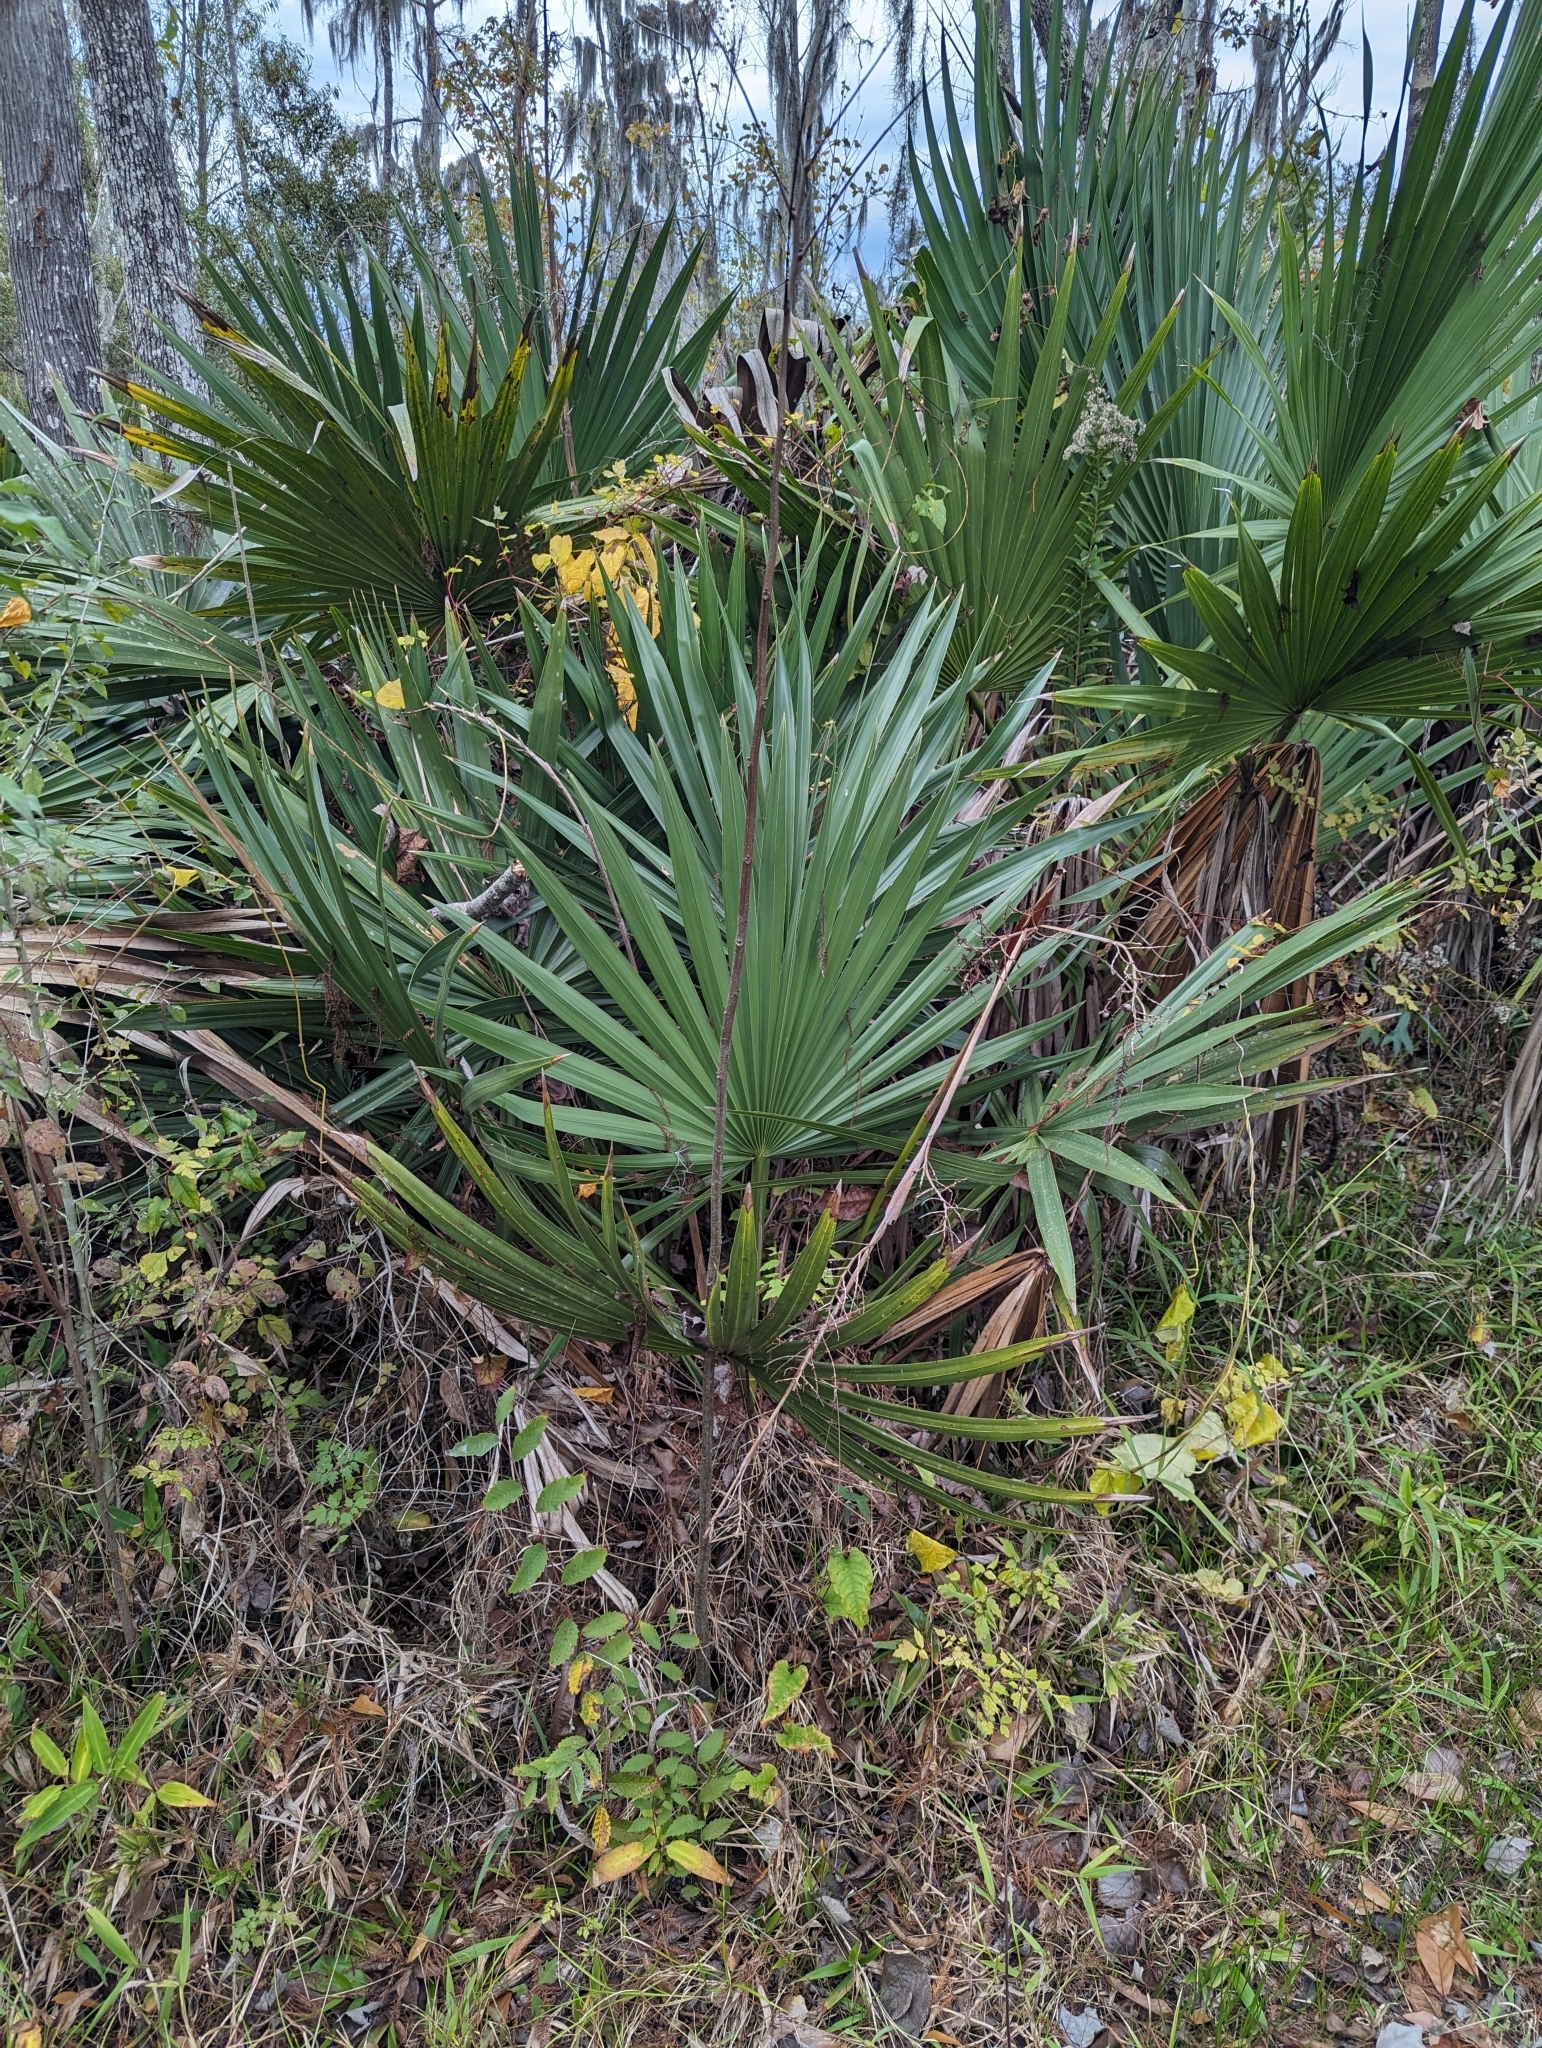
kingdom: Plantae
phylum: Tracheophyta
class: Liliopsida
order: Arecales
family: Arecaceae
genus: Sabal
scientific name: Sabal minor
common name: Dwarf palmetto
